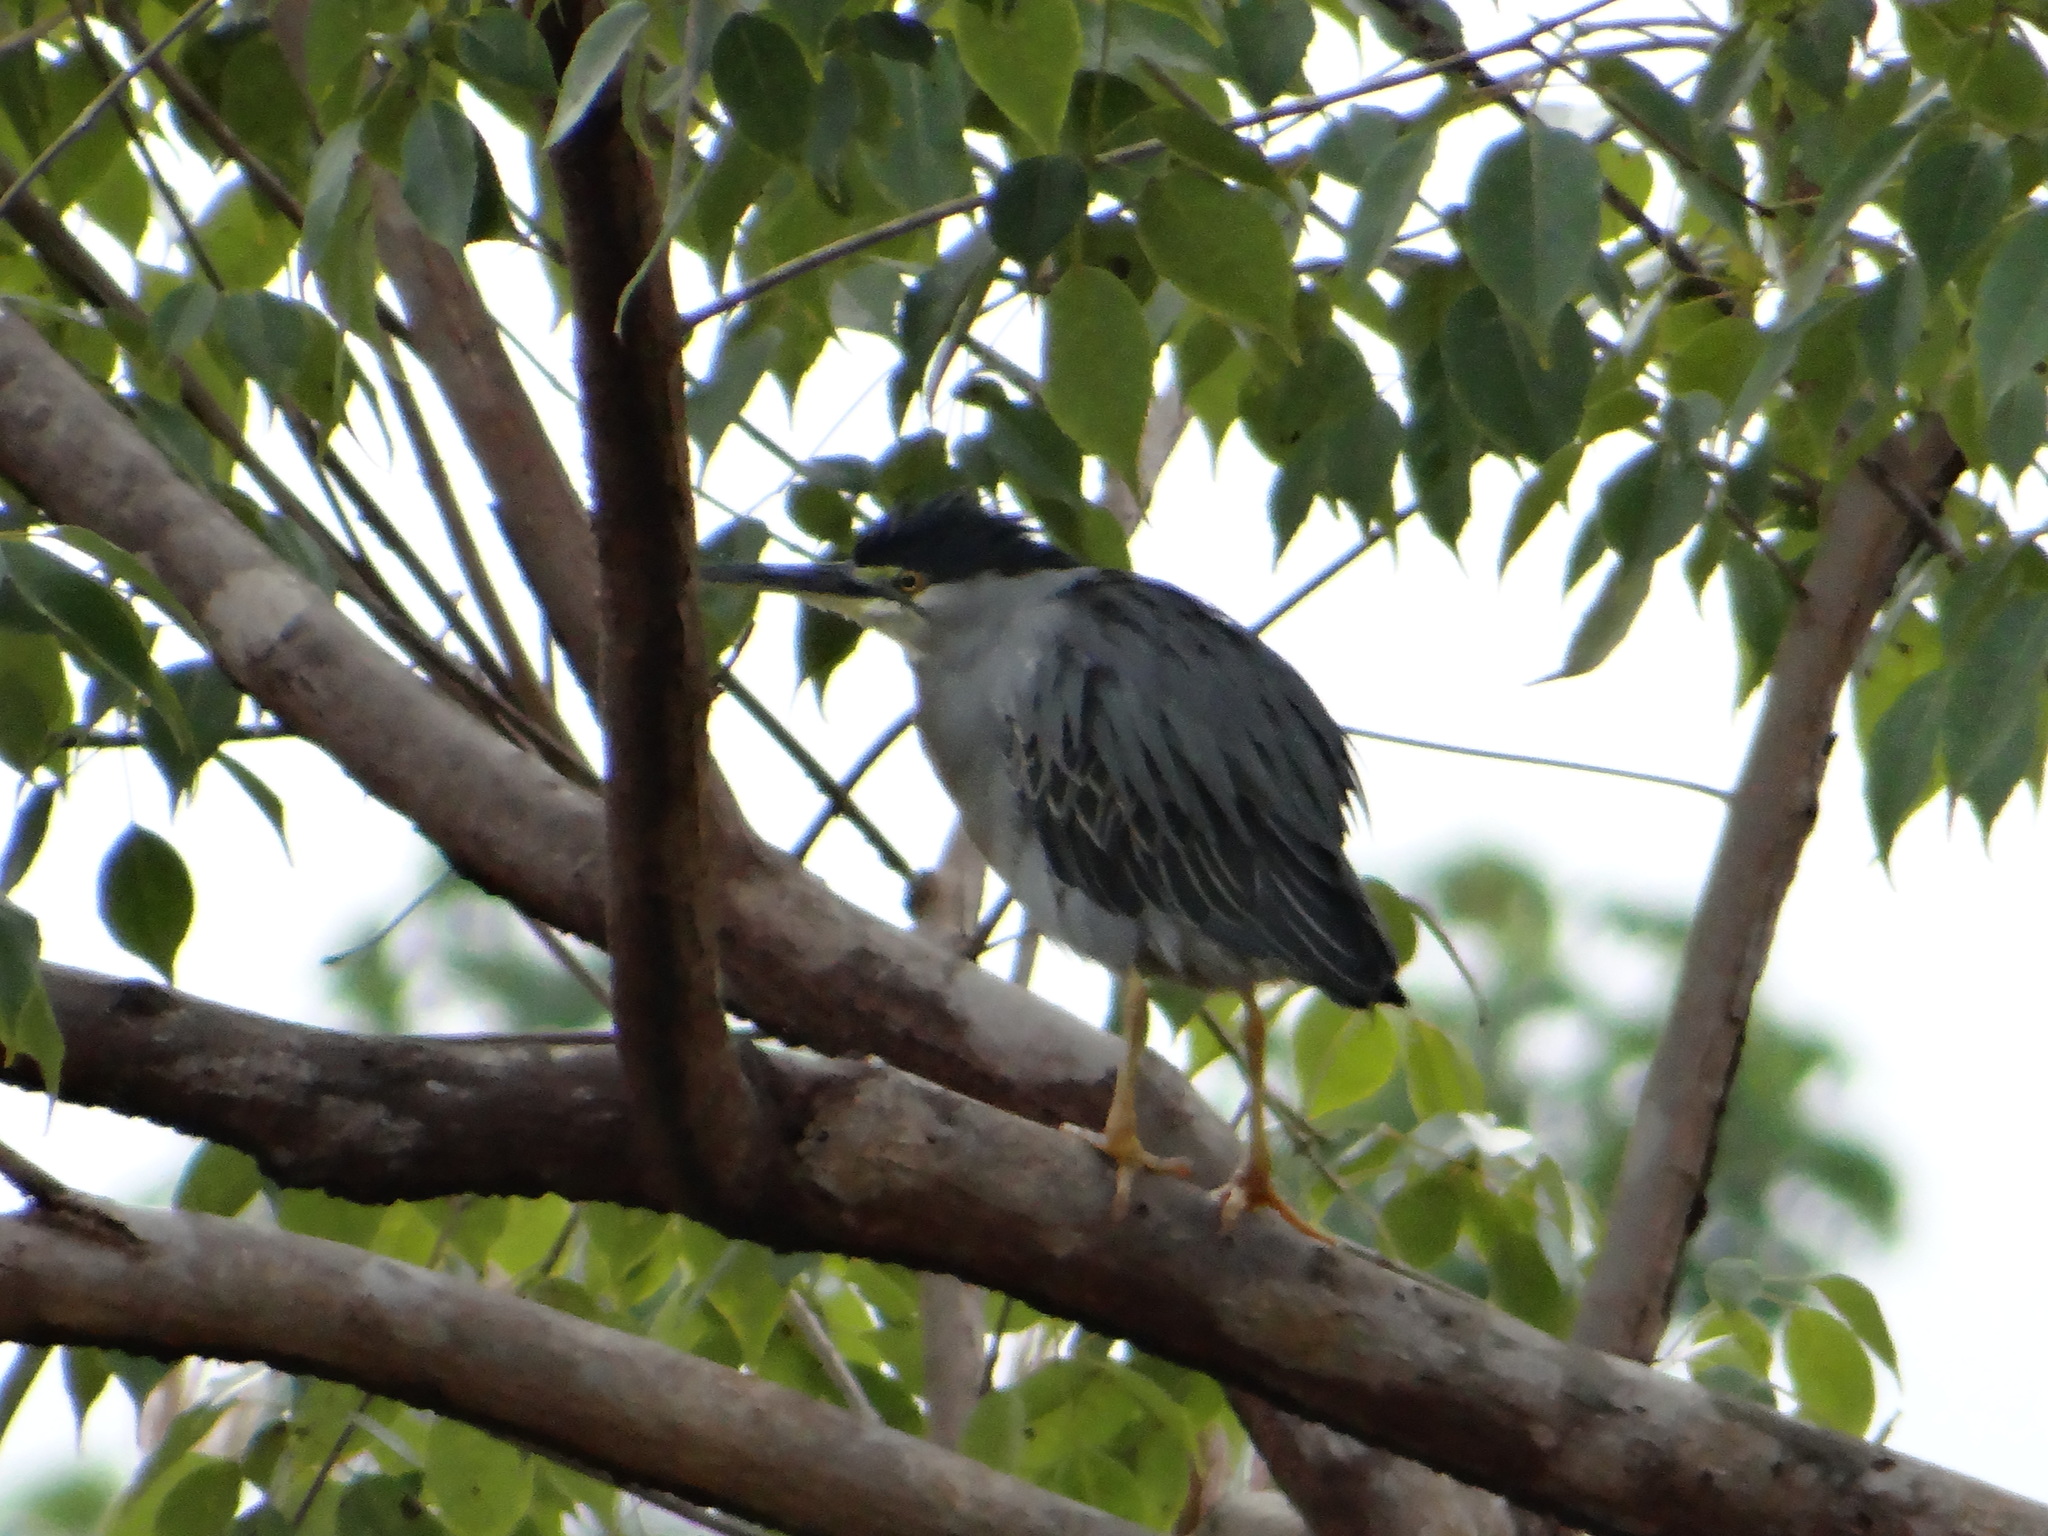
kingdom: Animalia
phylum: Chordata
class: Aves
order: Pelecaniformes
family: Ardeidae
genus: Butorides
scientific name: Butorides striata
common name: Striated heron
